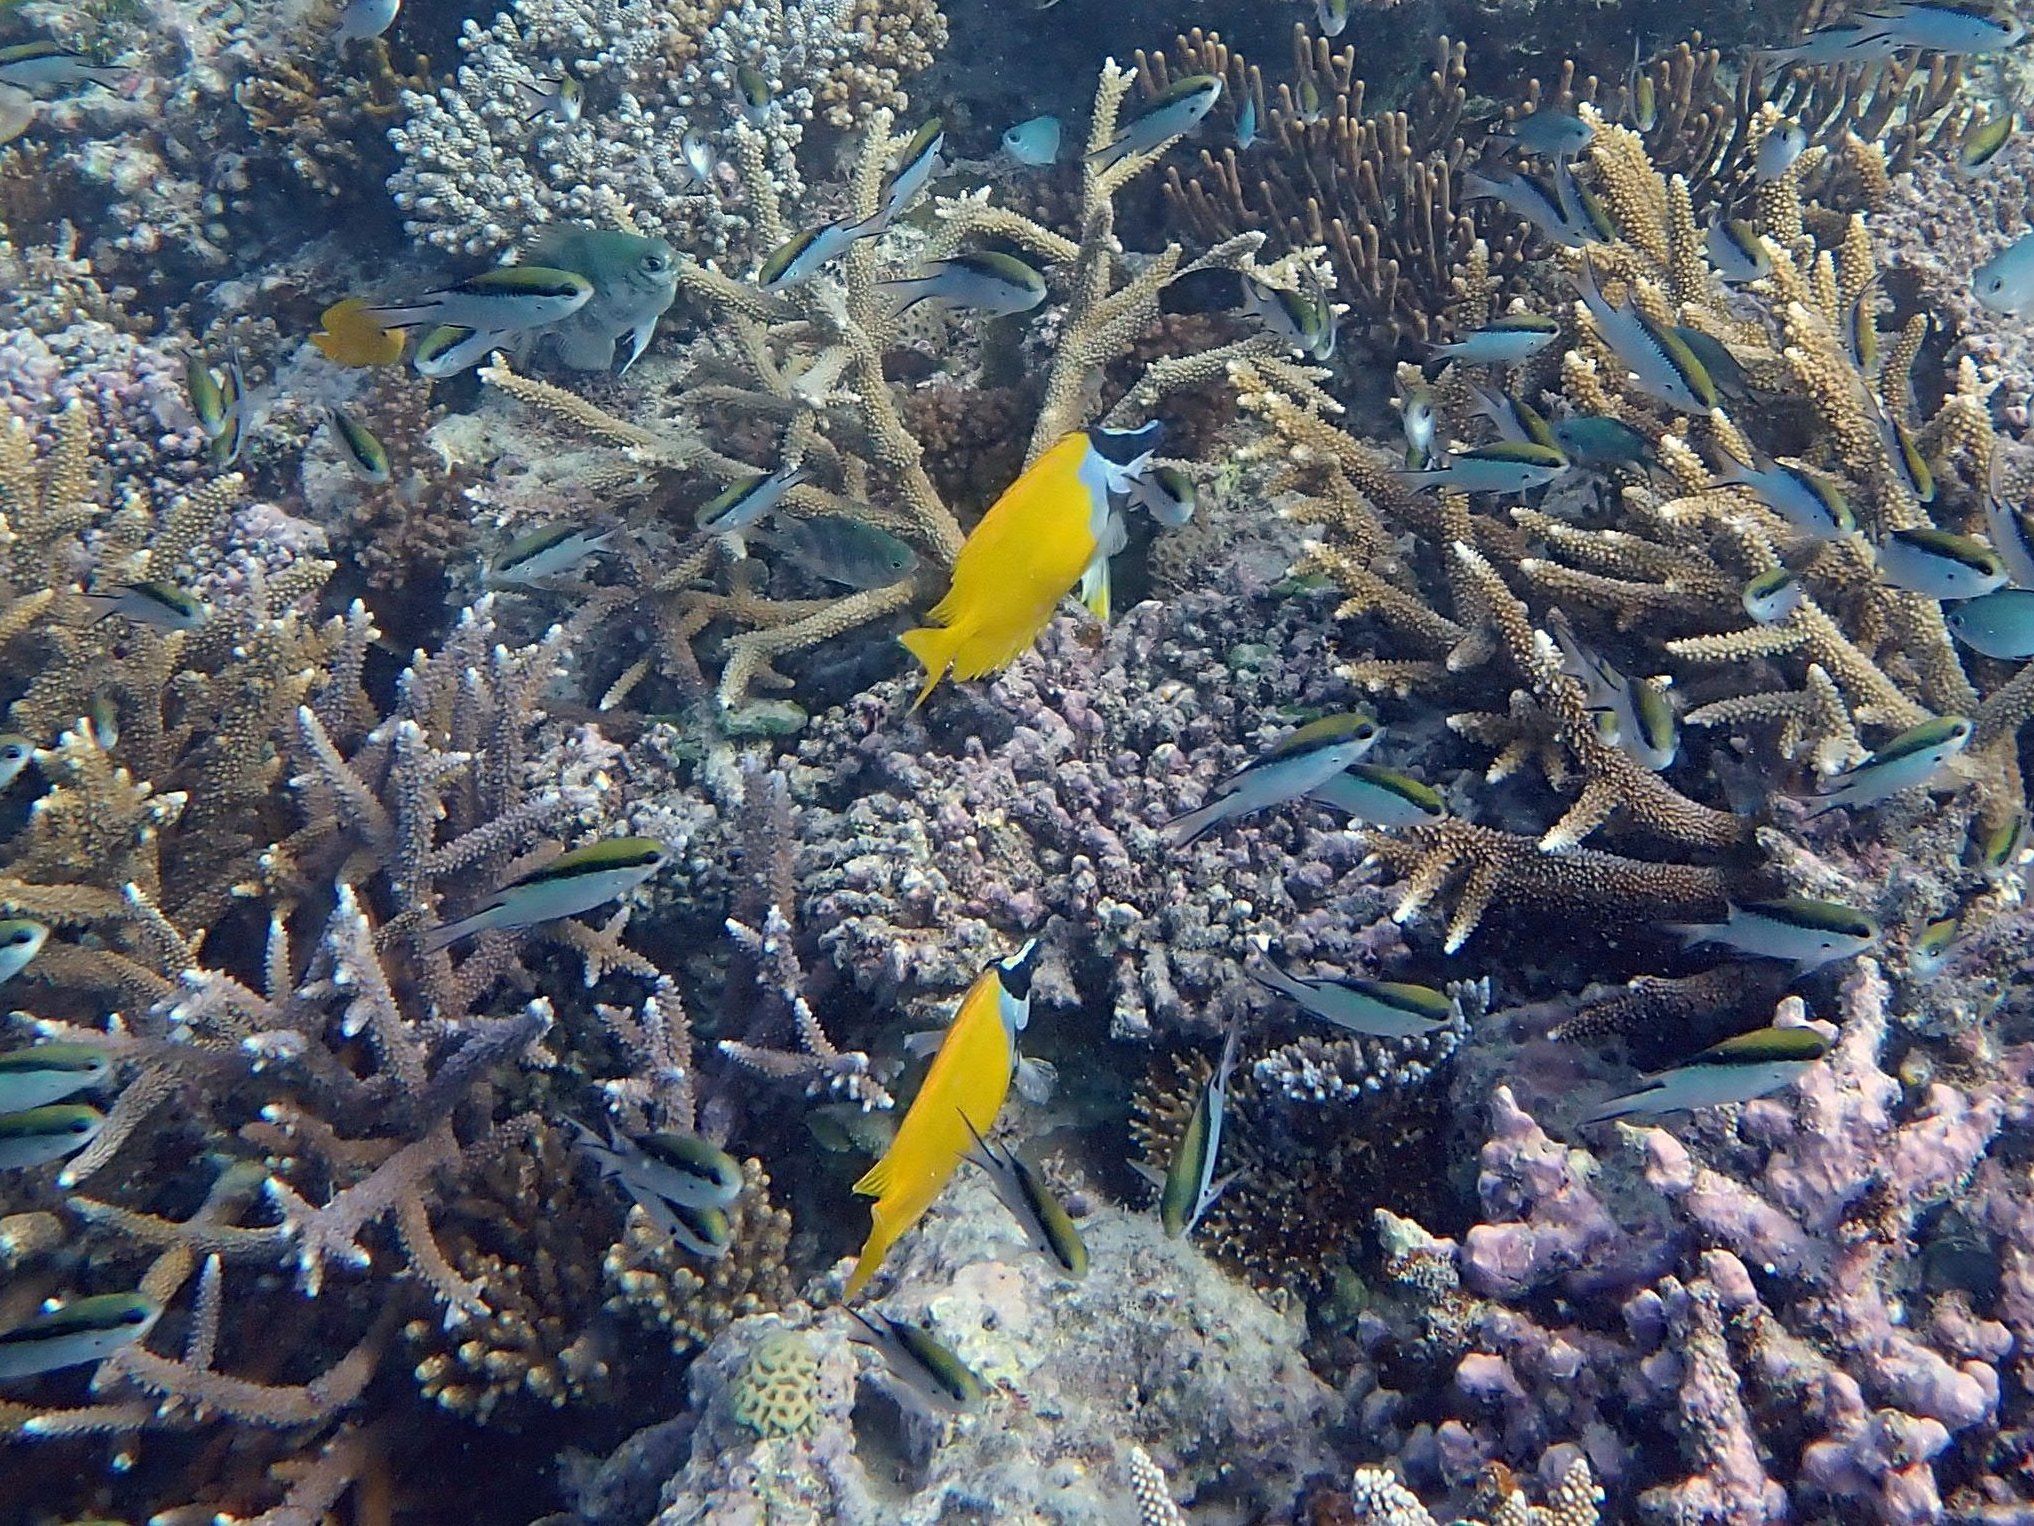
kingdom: Animalia
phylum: Chordata
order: Perciformes
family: Siganidae
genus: Siganus
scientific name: Siganus vulpinus
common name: Foxface
